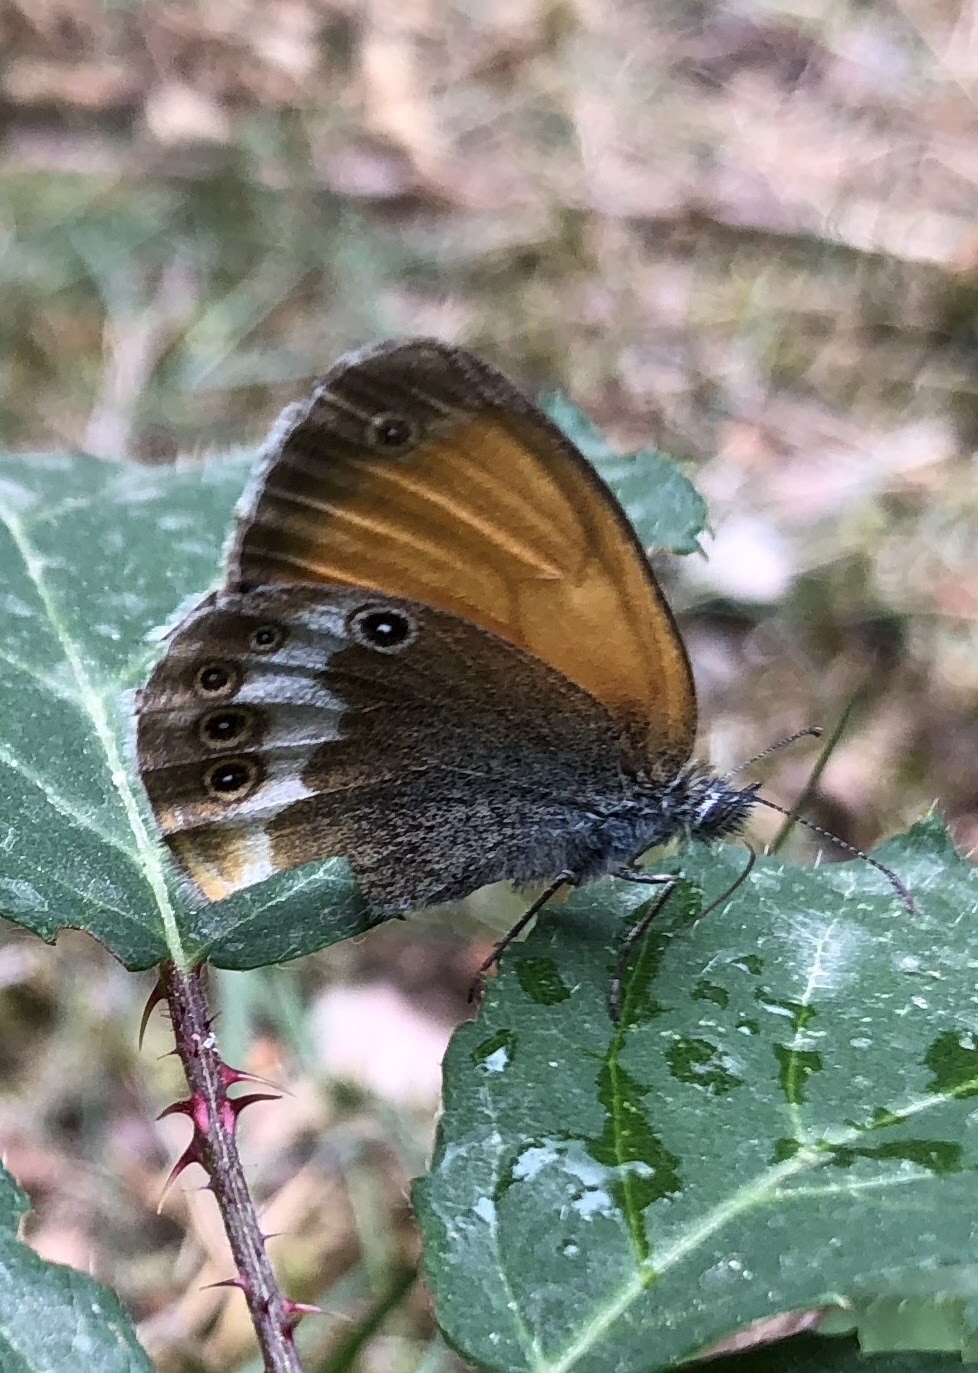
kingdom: Animalia
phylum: Arthropoda
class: Insecta
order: Lepidoptera
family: Nymphalidae
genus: Coenonympha
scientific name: Coenonympha arcania
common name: Pearly heath
